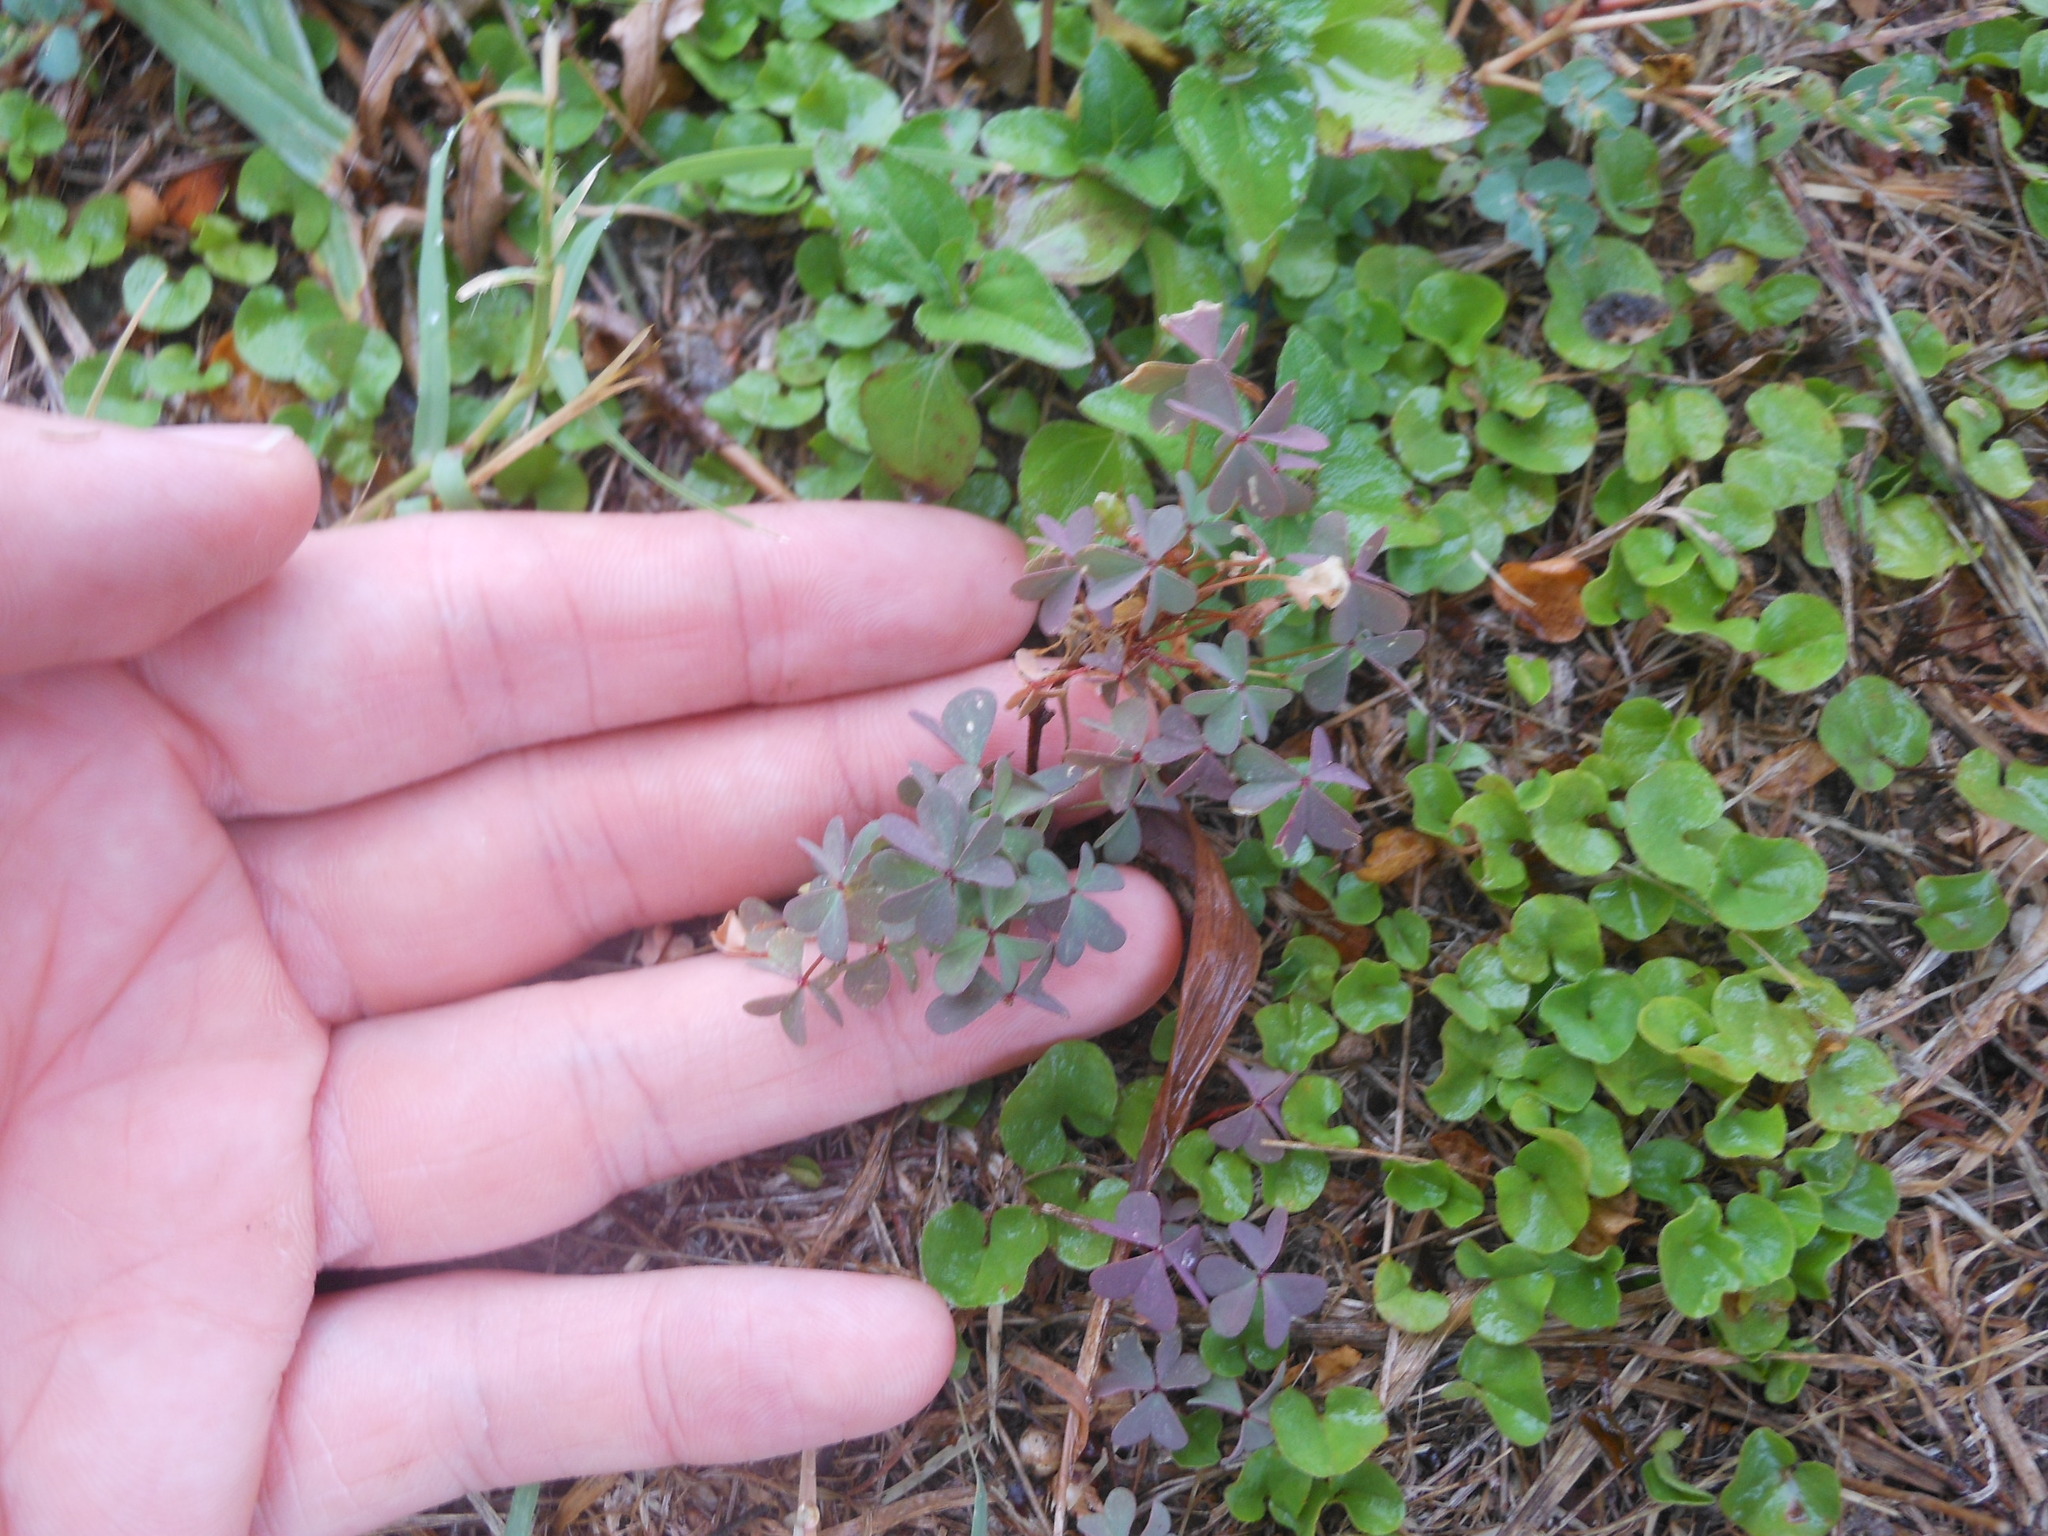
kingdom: Plantae
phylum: Tracheophyta
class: Magnoliopsida
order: Oxalidales
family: Oxalidaceae
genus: Oxalis
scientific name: Oxalis corniculata
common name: Procumbent yellow-sorrel
